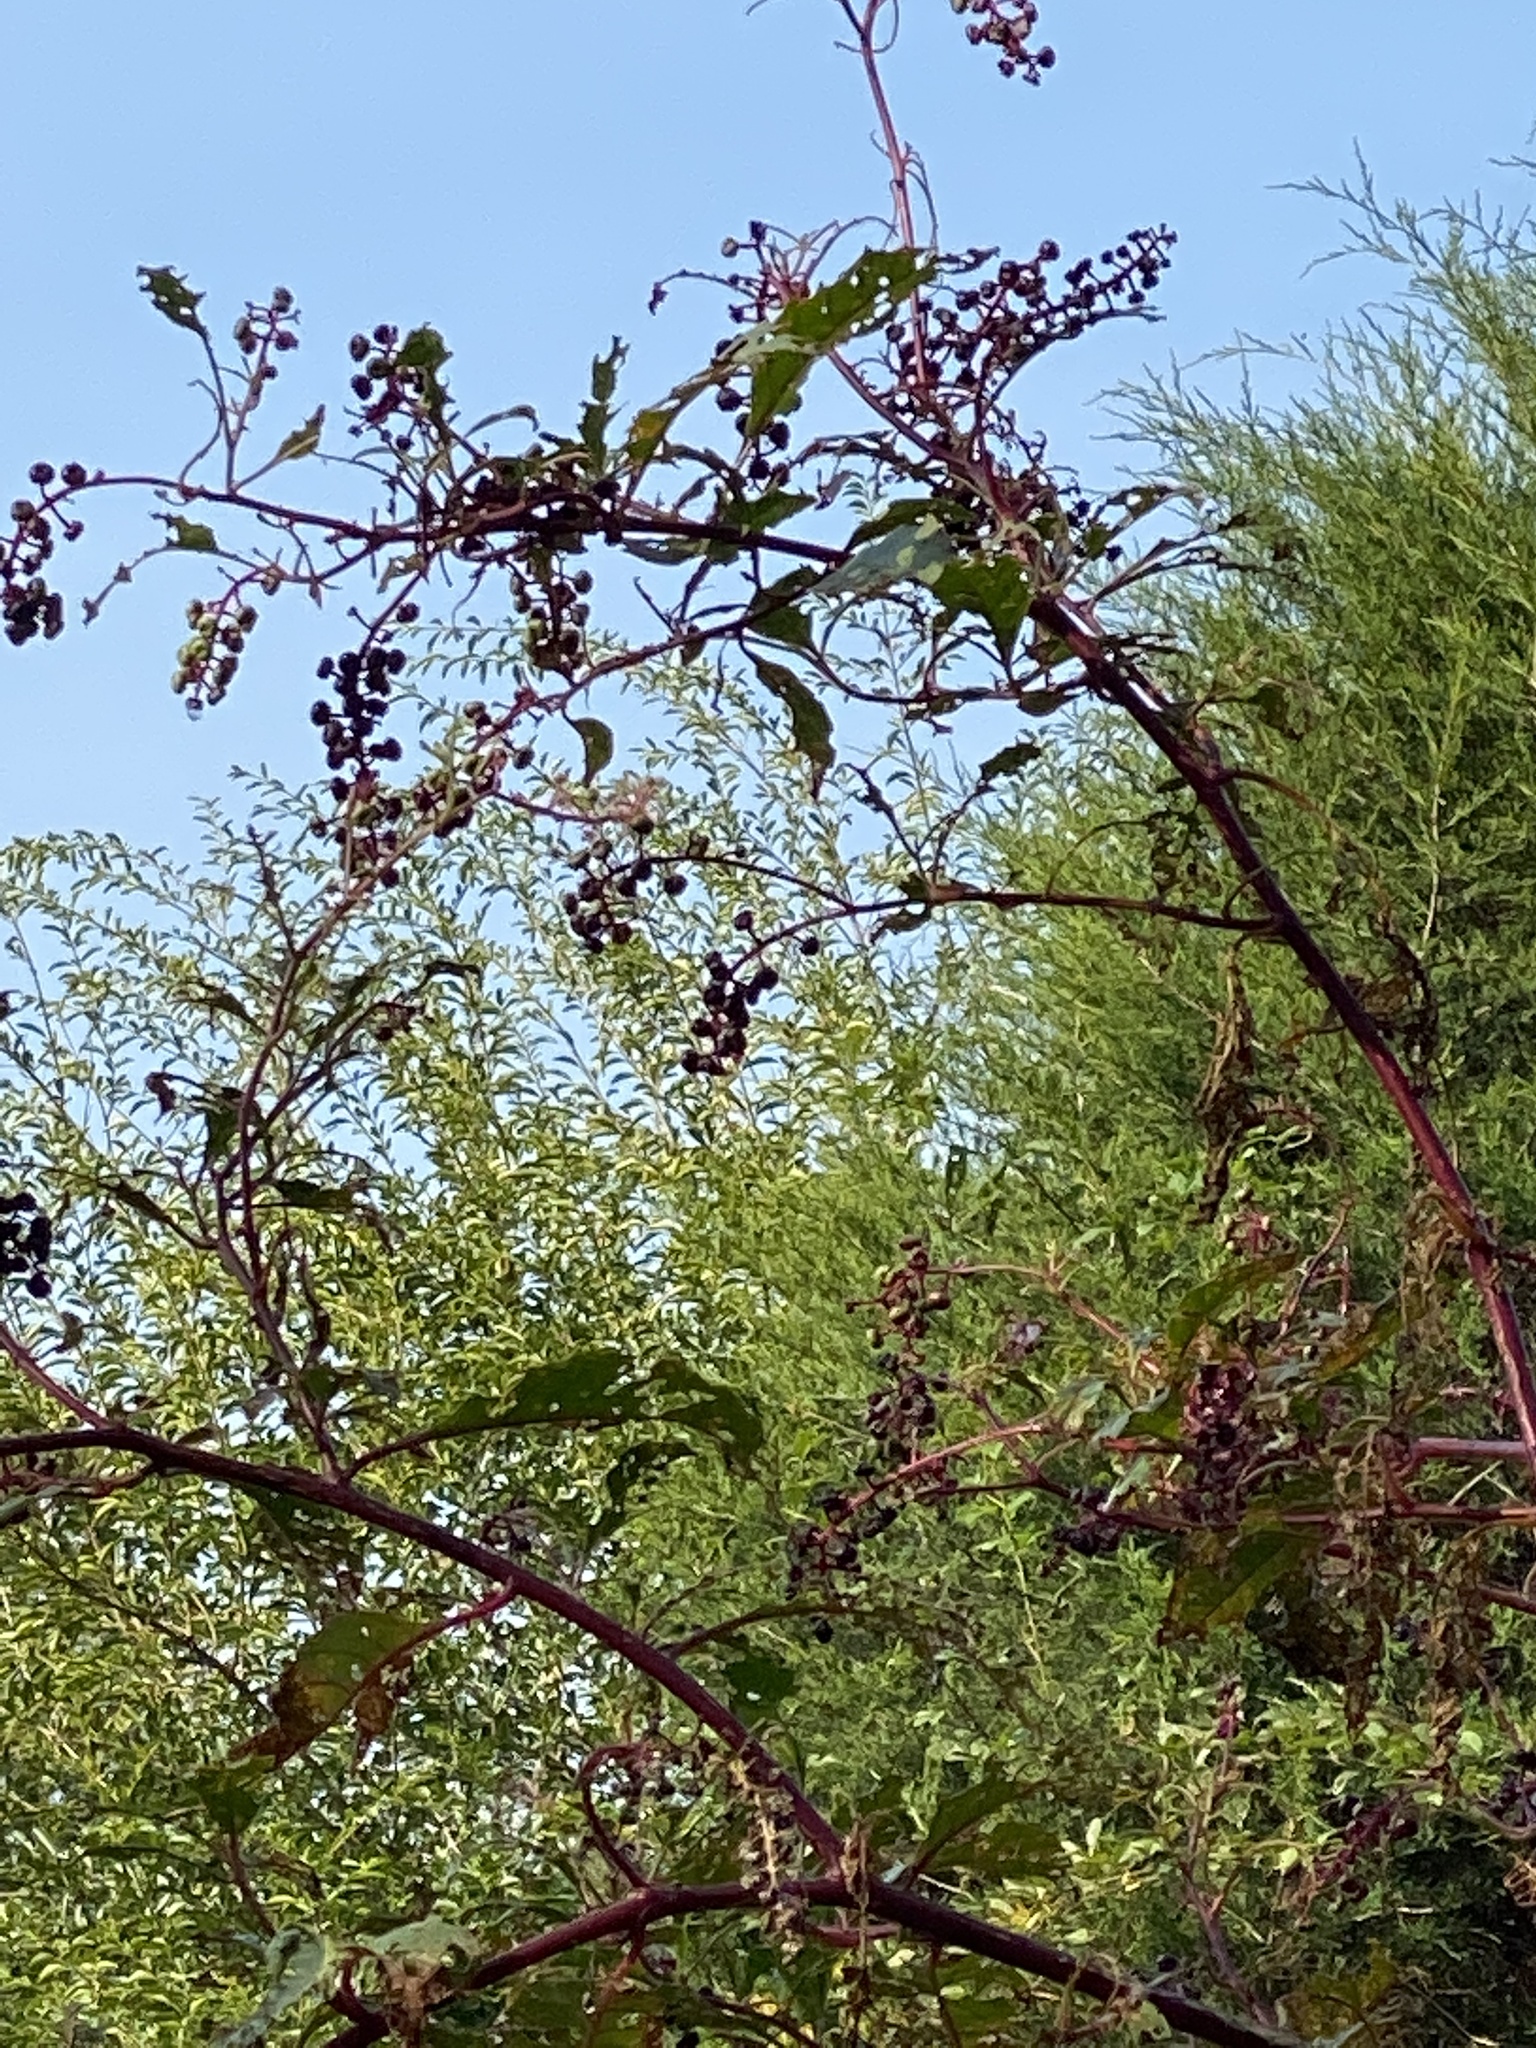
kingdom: Plantae
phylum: Tracheophyta
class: Magnoliopsida
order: Caryophyllales
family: Phytolaccaceae
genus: Phytolacca
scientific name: Phytolacca americana
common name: American pokeweed
